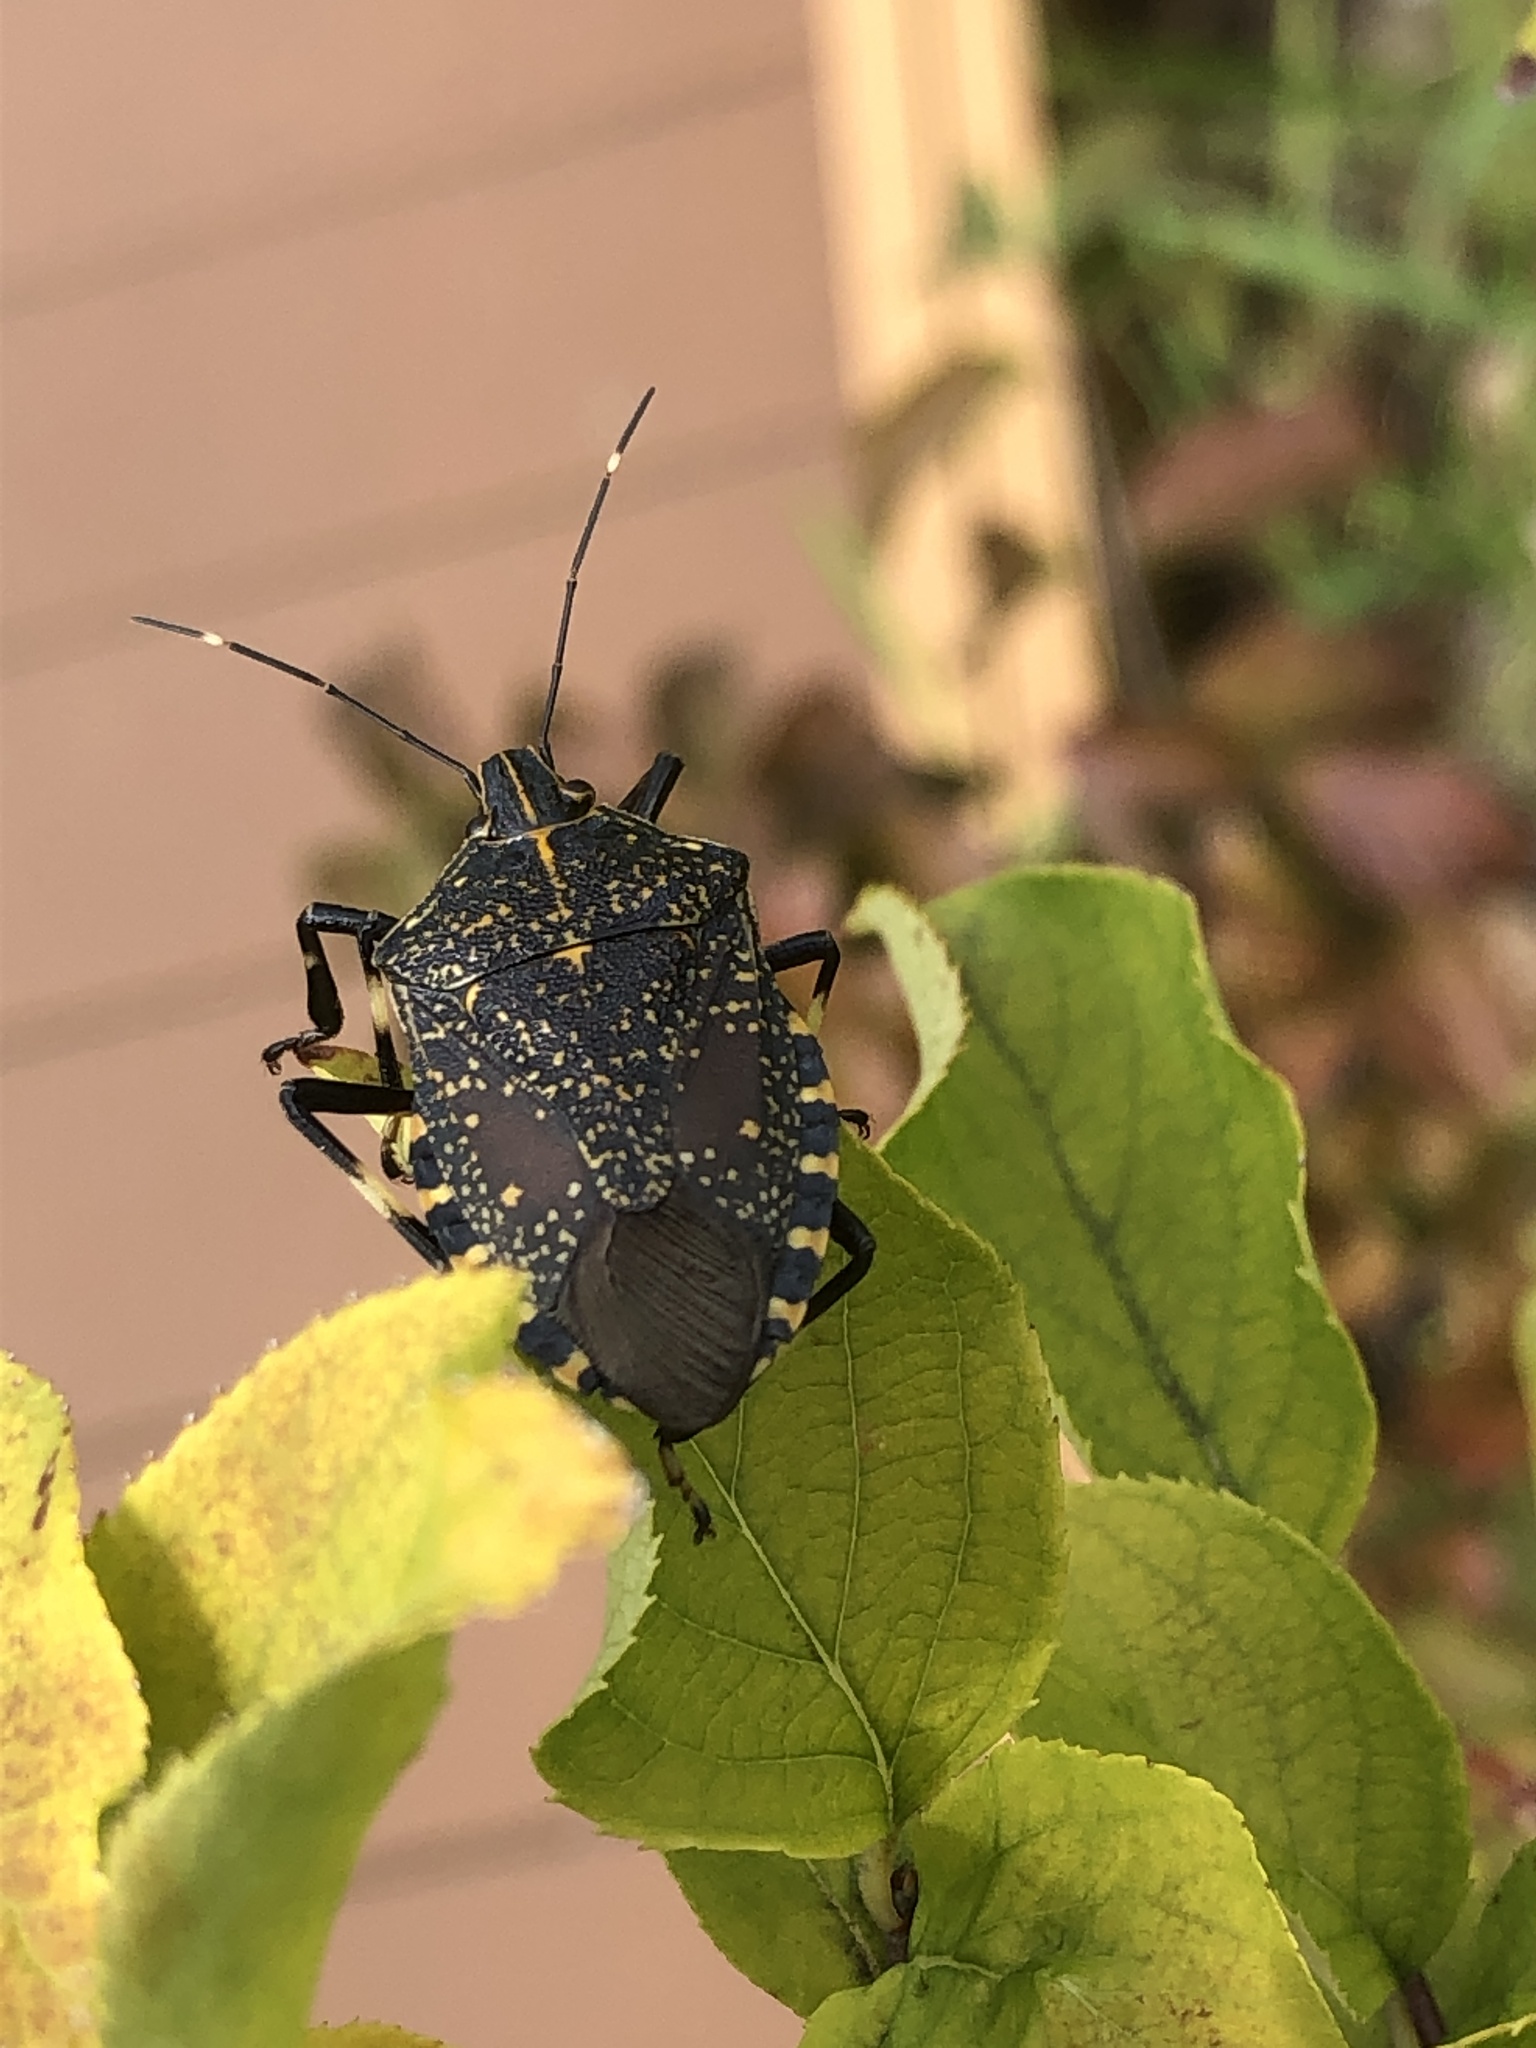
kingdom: Animalia
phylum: Arthropoda
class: Insecta
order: Hemiptera
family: Pentatomidae
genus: Erthesina
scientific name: Erthesina fullo
